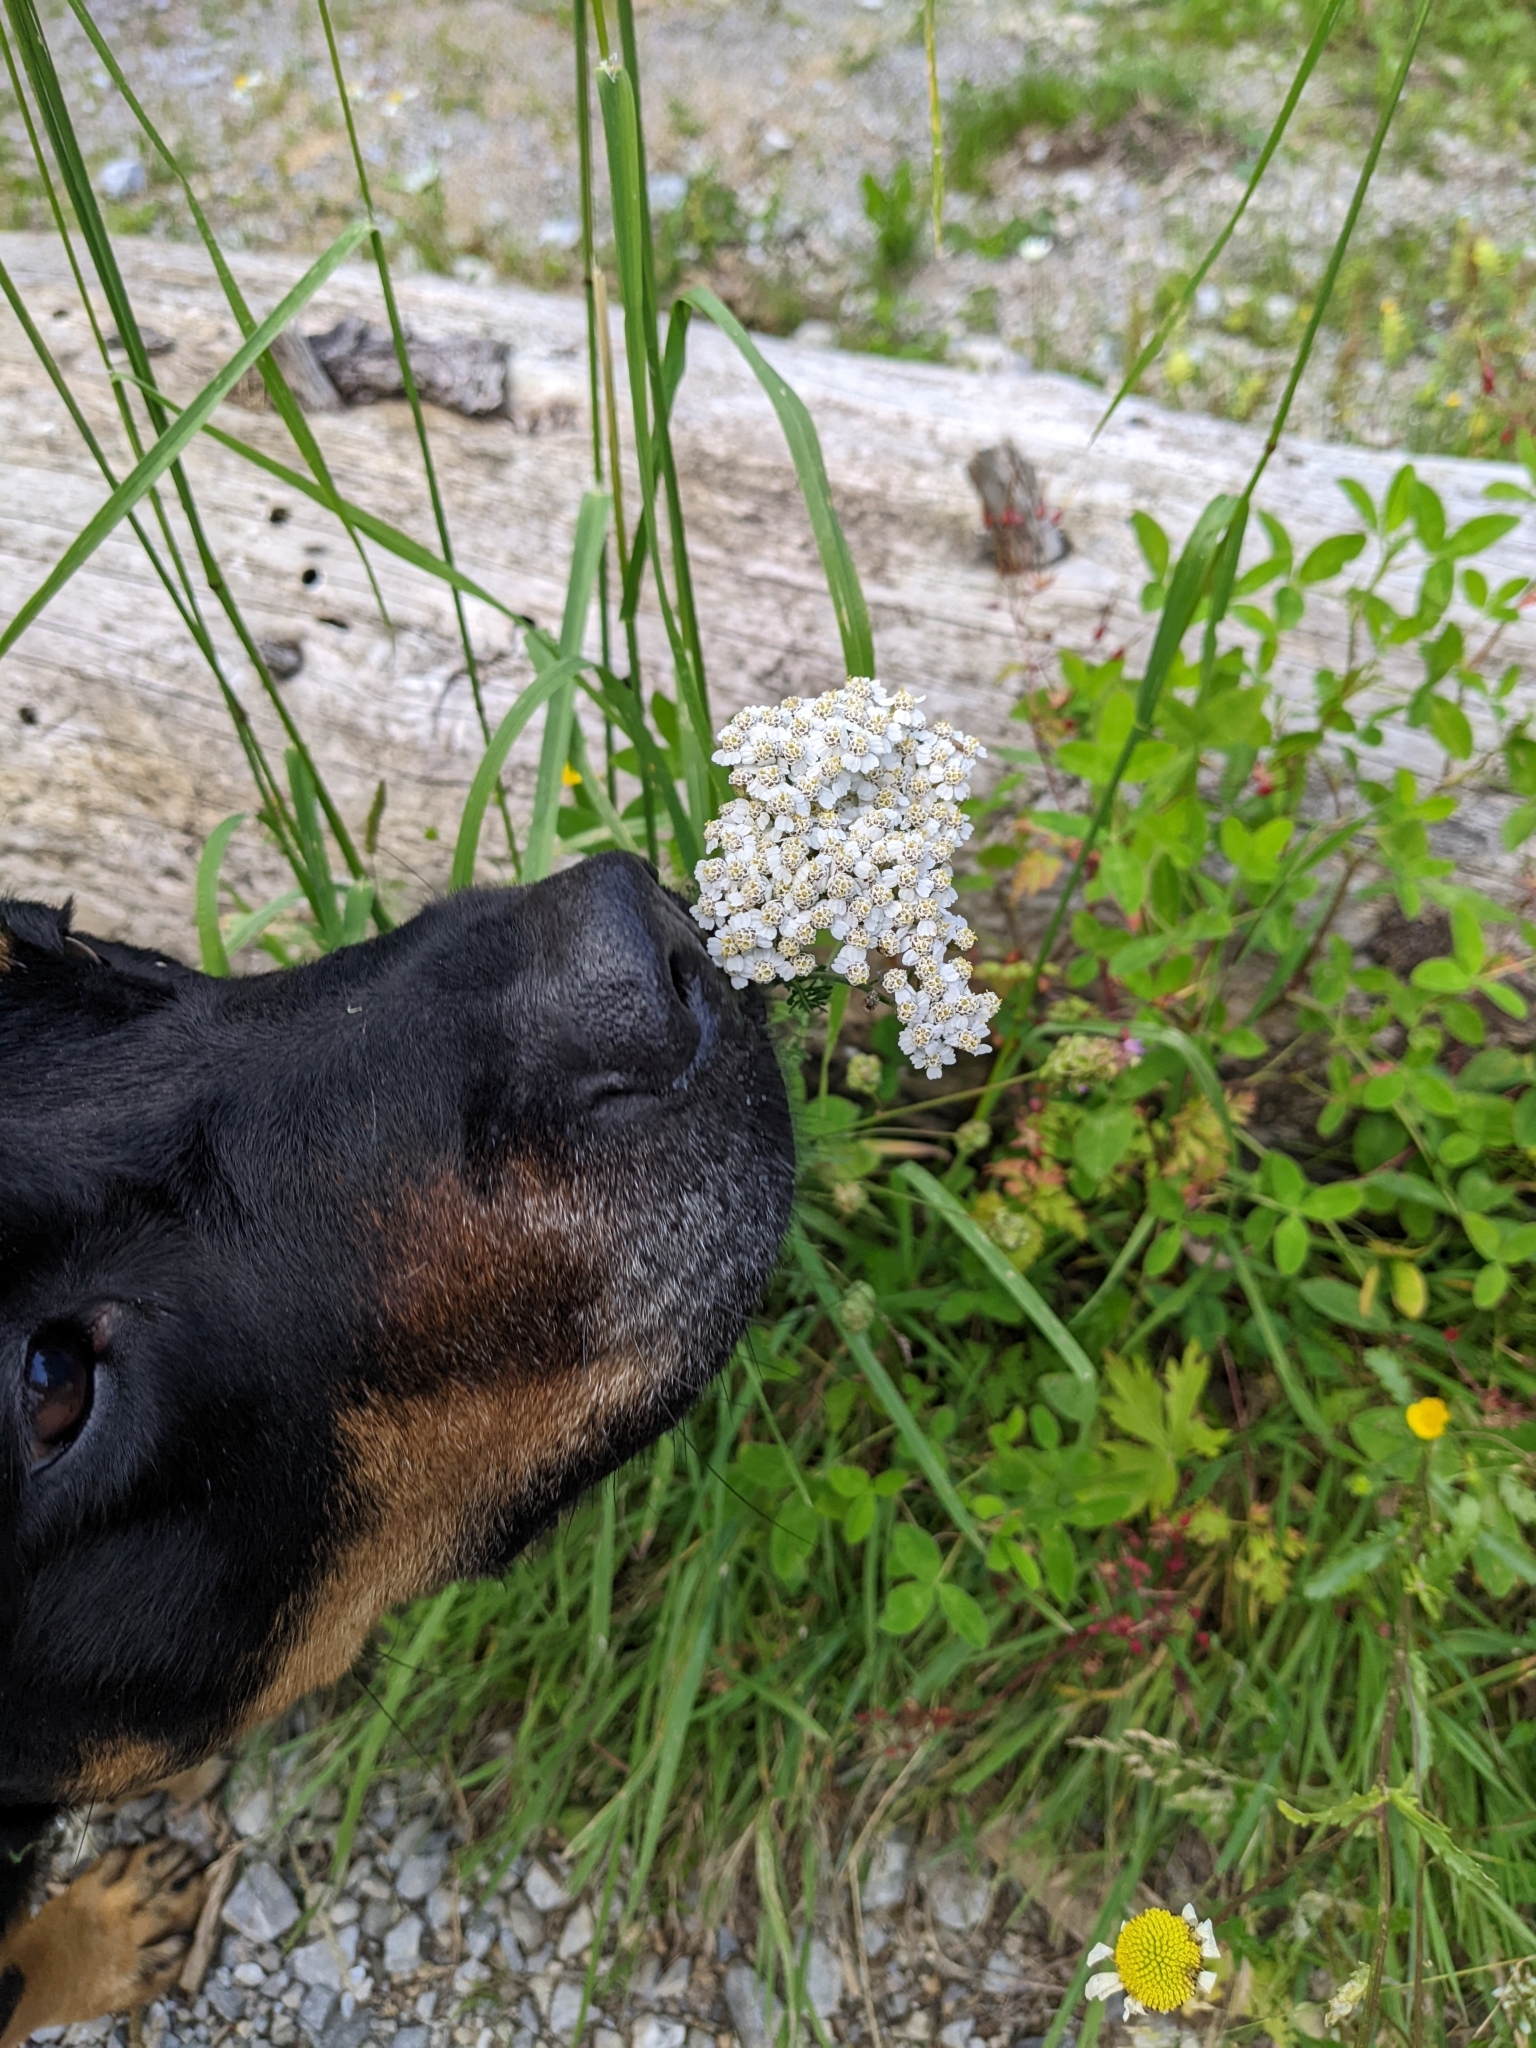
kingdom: Plantae
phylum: Tracheophyta
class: Magnoliopsida
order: Asterales
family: Asteraceae
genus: Achillea
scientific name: Achillea millefolium
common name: Yarrow
